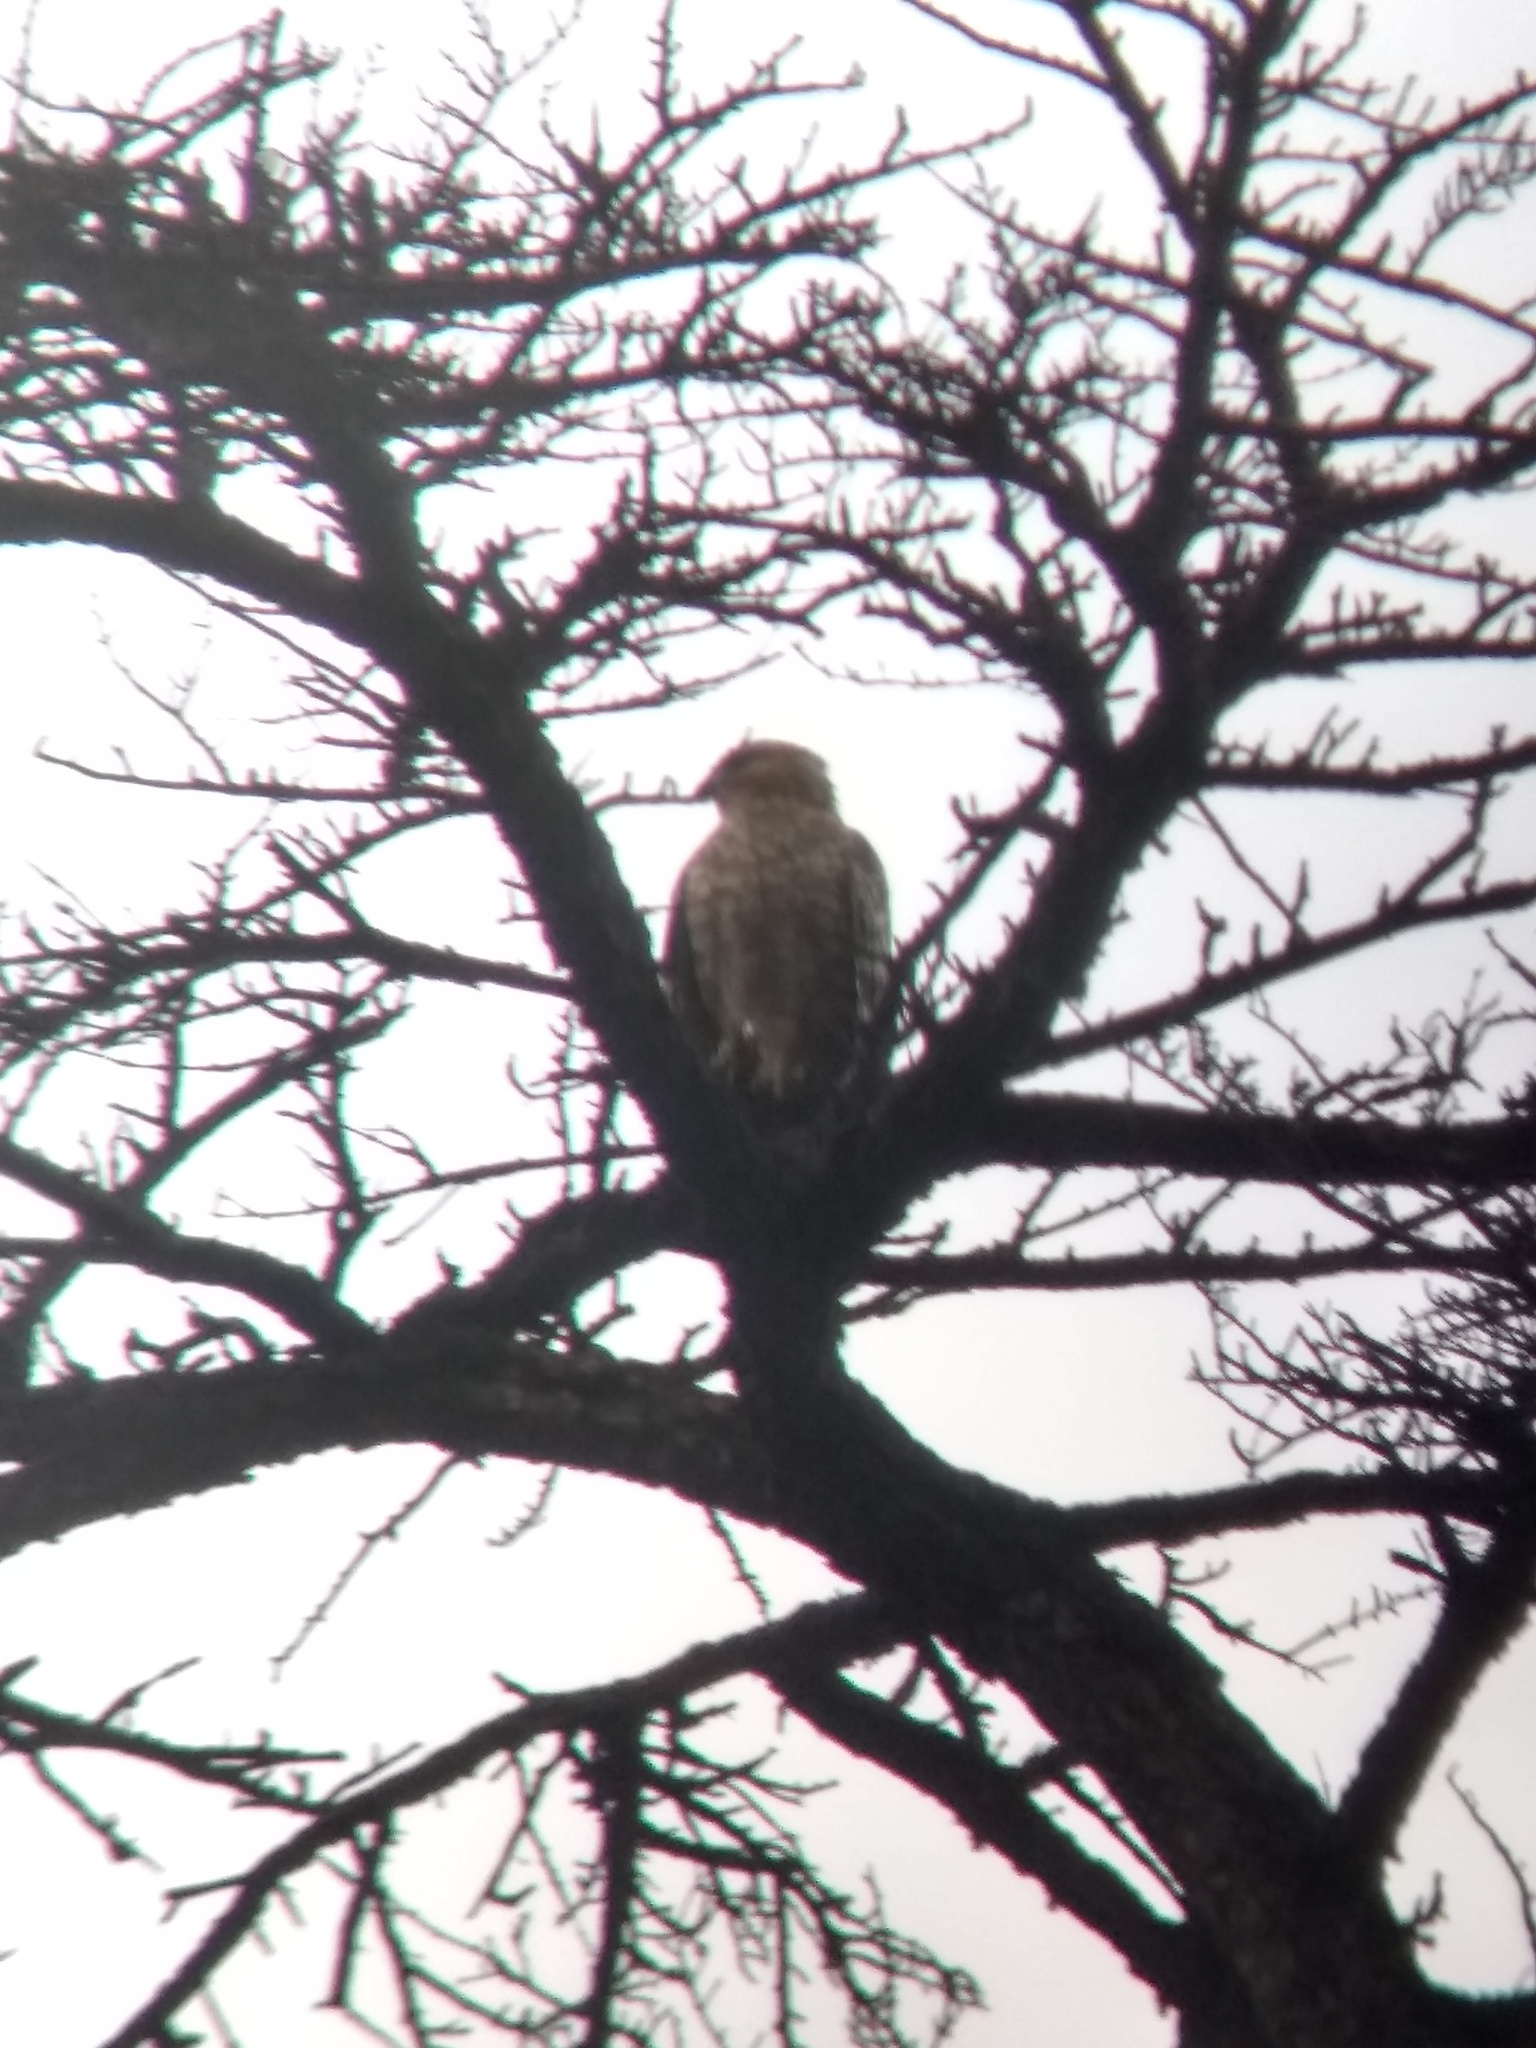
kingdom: Animalia
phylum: Chordata
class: Aves
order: Accipitriformes
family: Accipitridae
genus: Buteo
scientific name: Buteo lineatus
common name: Red-shouldered hawk
